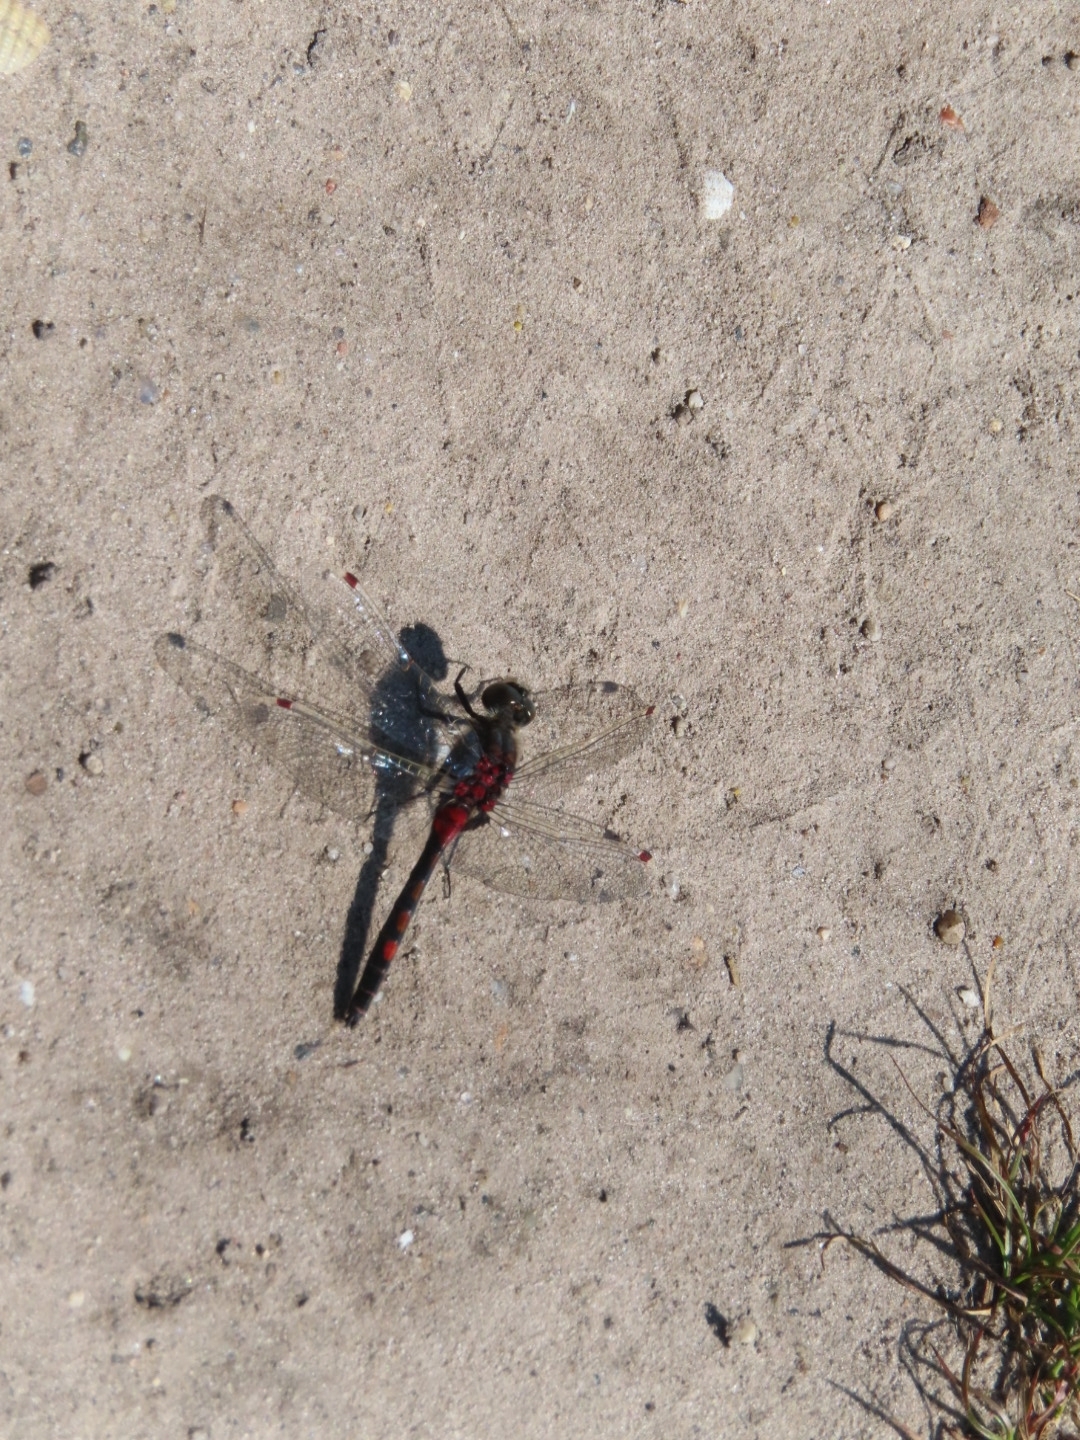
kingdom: Animalia
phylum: Arthropoda
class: Insecta
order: Odonata
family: Libellulidae
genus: Leucorrhinia
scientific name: Leucorrhinia rubicunda
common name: Ruby whiteface
